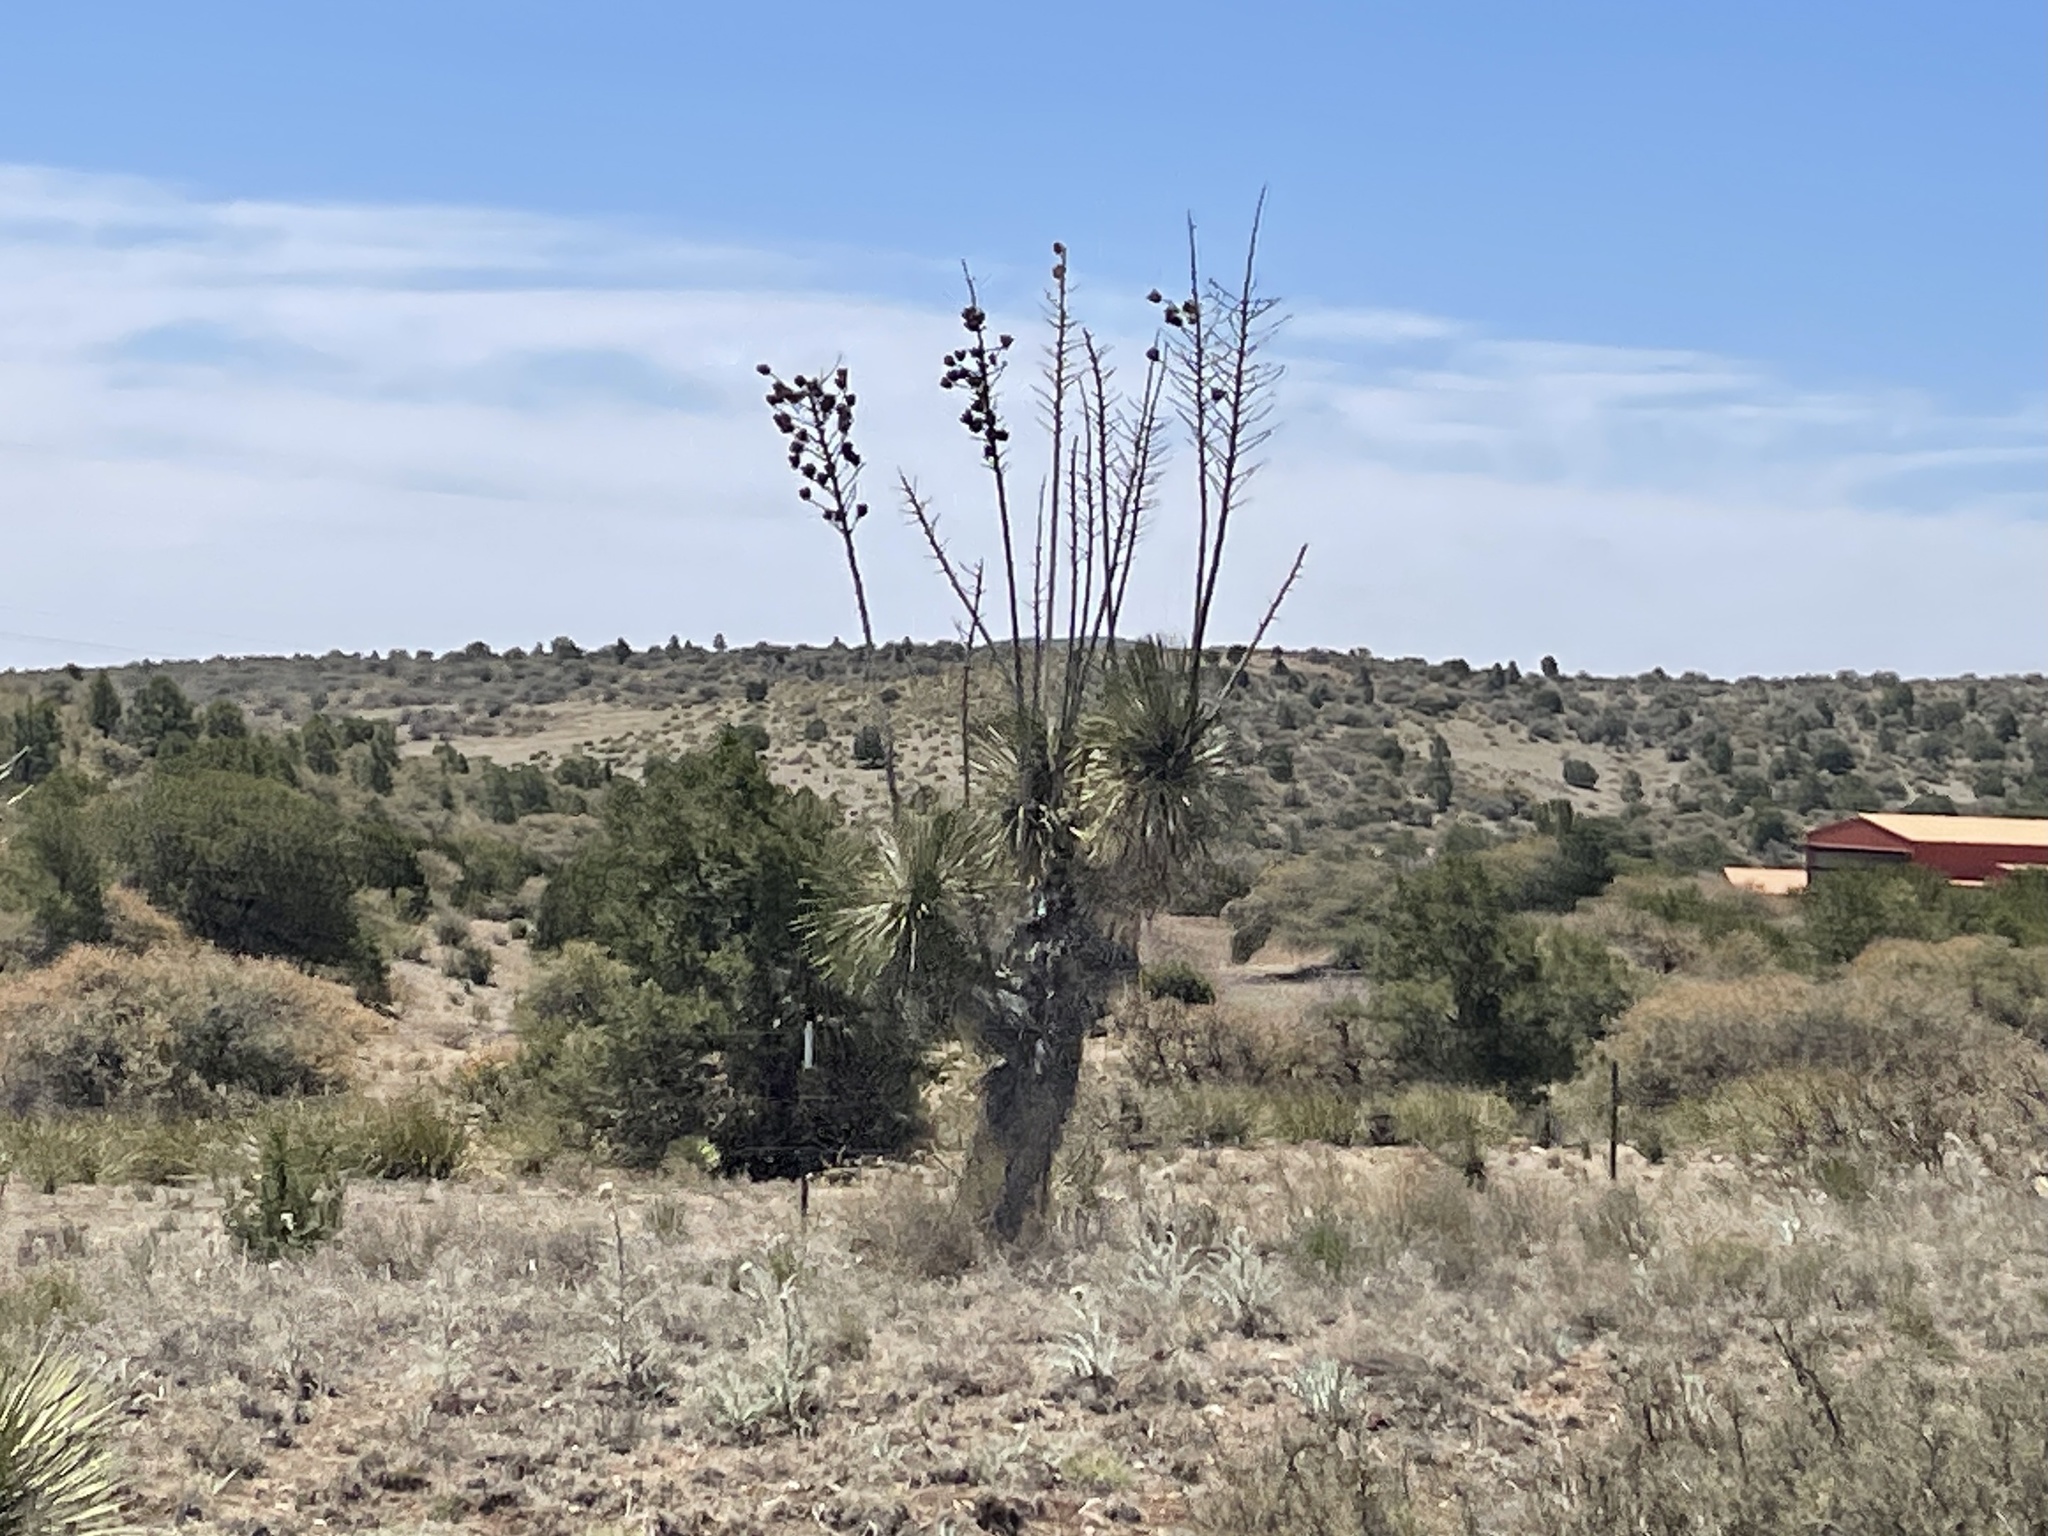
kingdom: Plantae
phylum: Tracheophyta
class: Liliopsida
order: Asparagales
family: Asparagaceae
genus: Yucca
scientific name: Yucca elata
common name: Palmella
